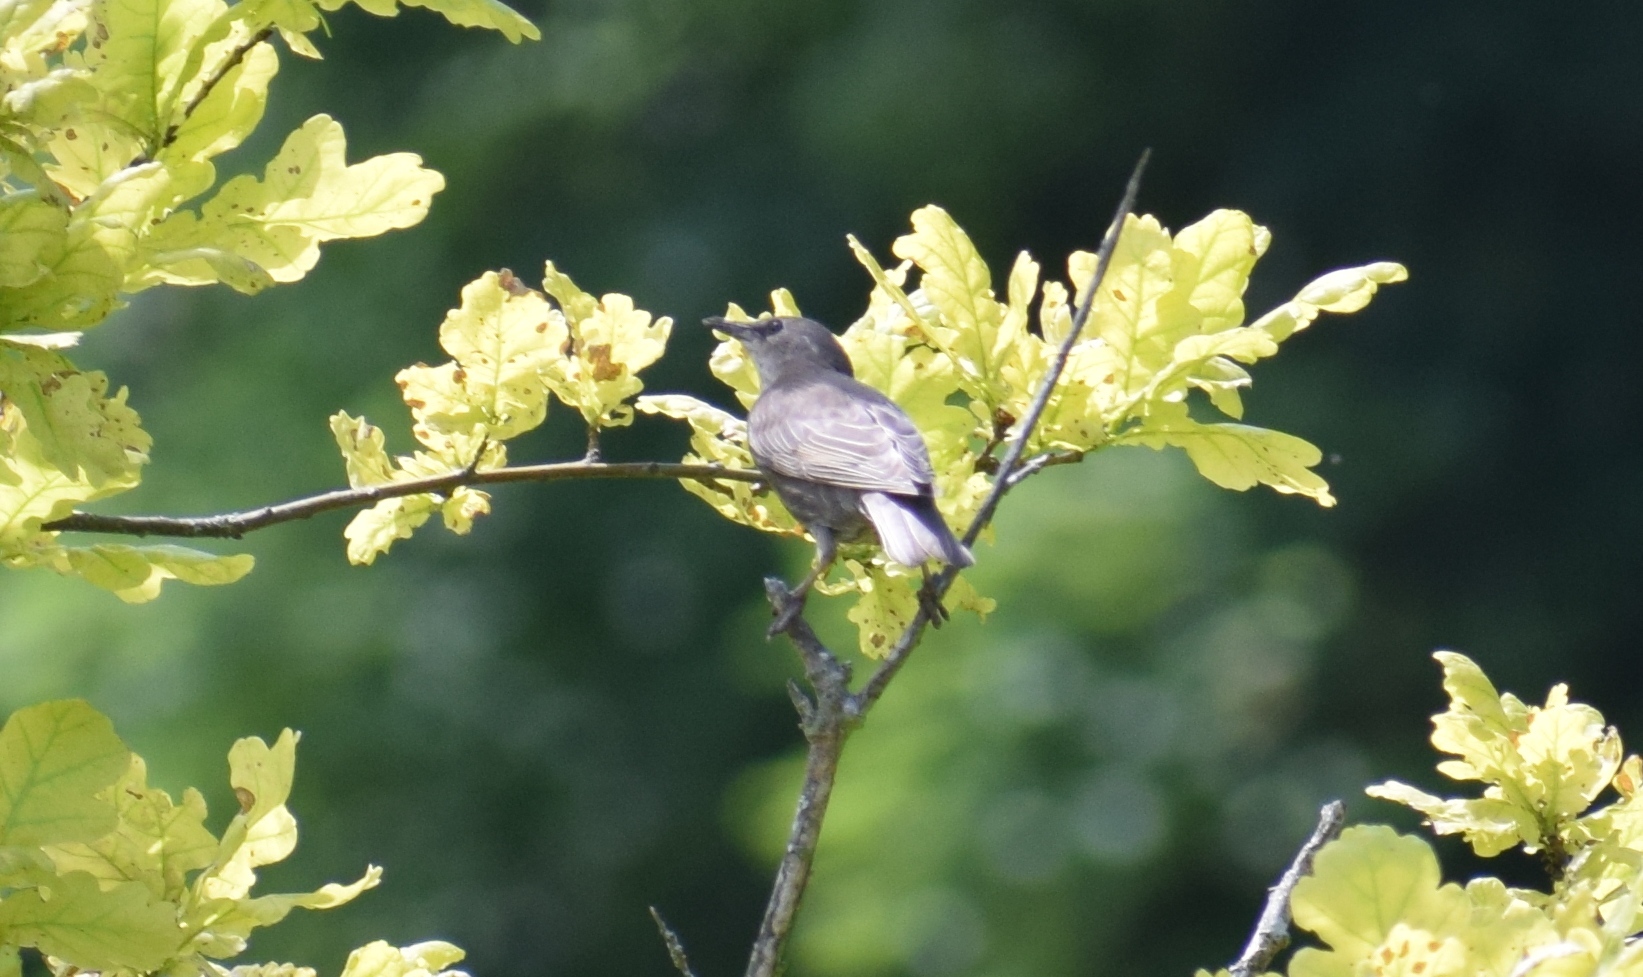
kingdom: Animalia
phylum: Chordata
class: Aves
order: Passeriformes
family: Sturnidae
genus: Sturnus
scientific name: Sturnus vulgaris
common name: Common starling
